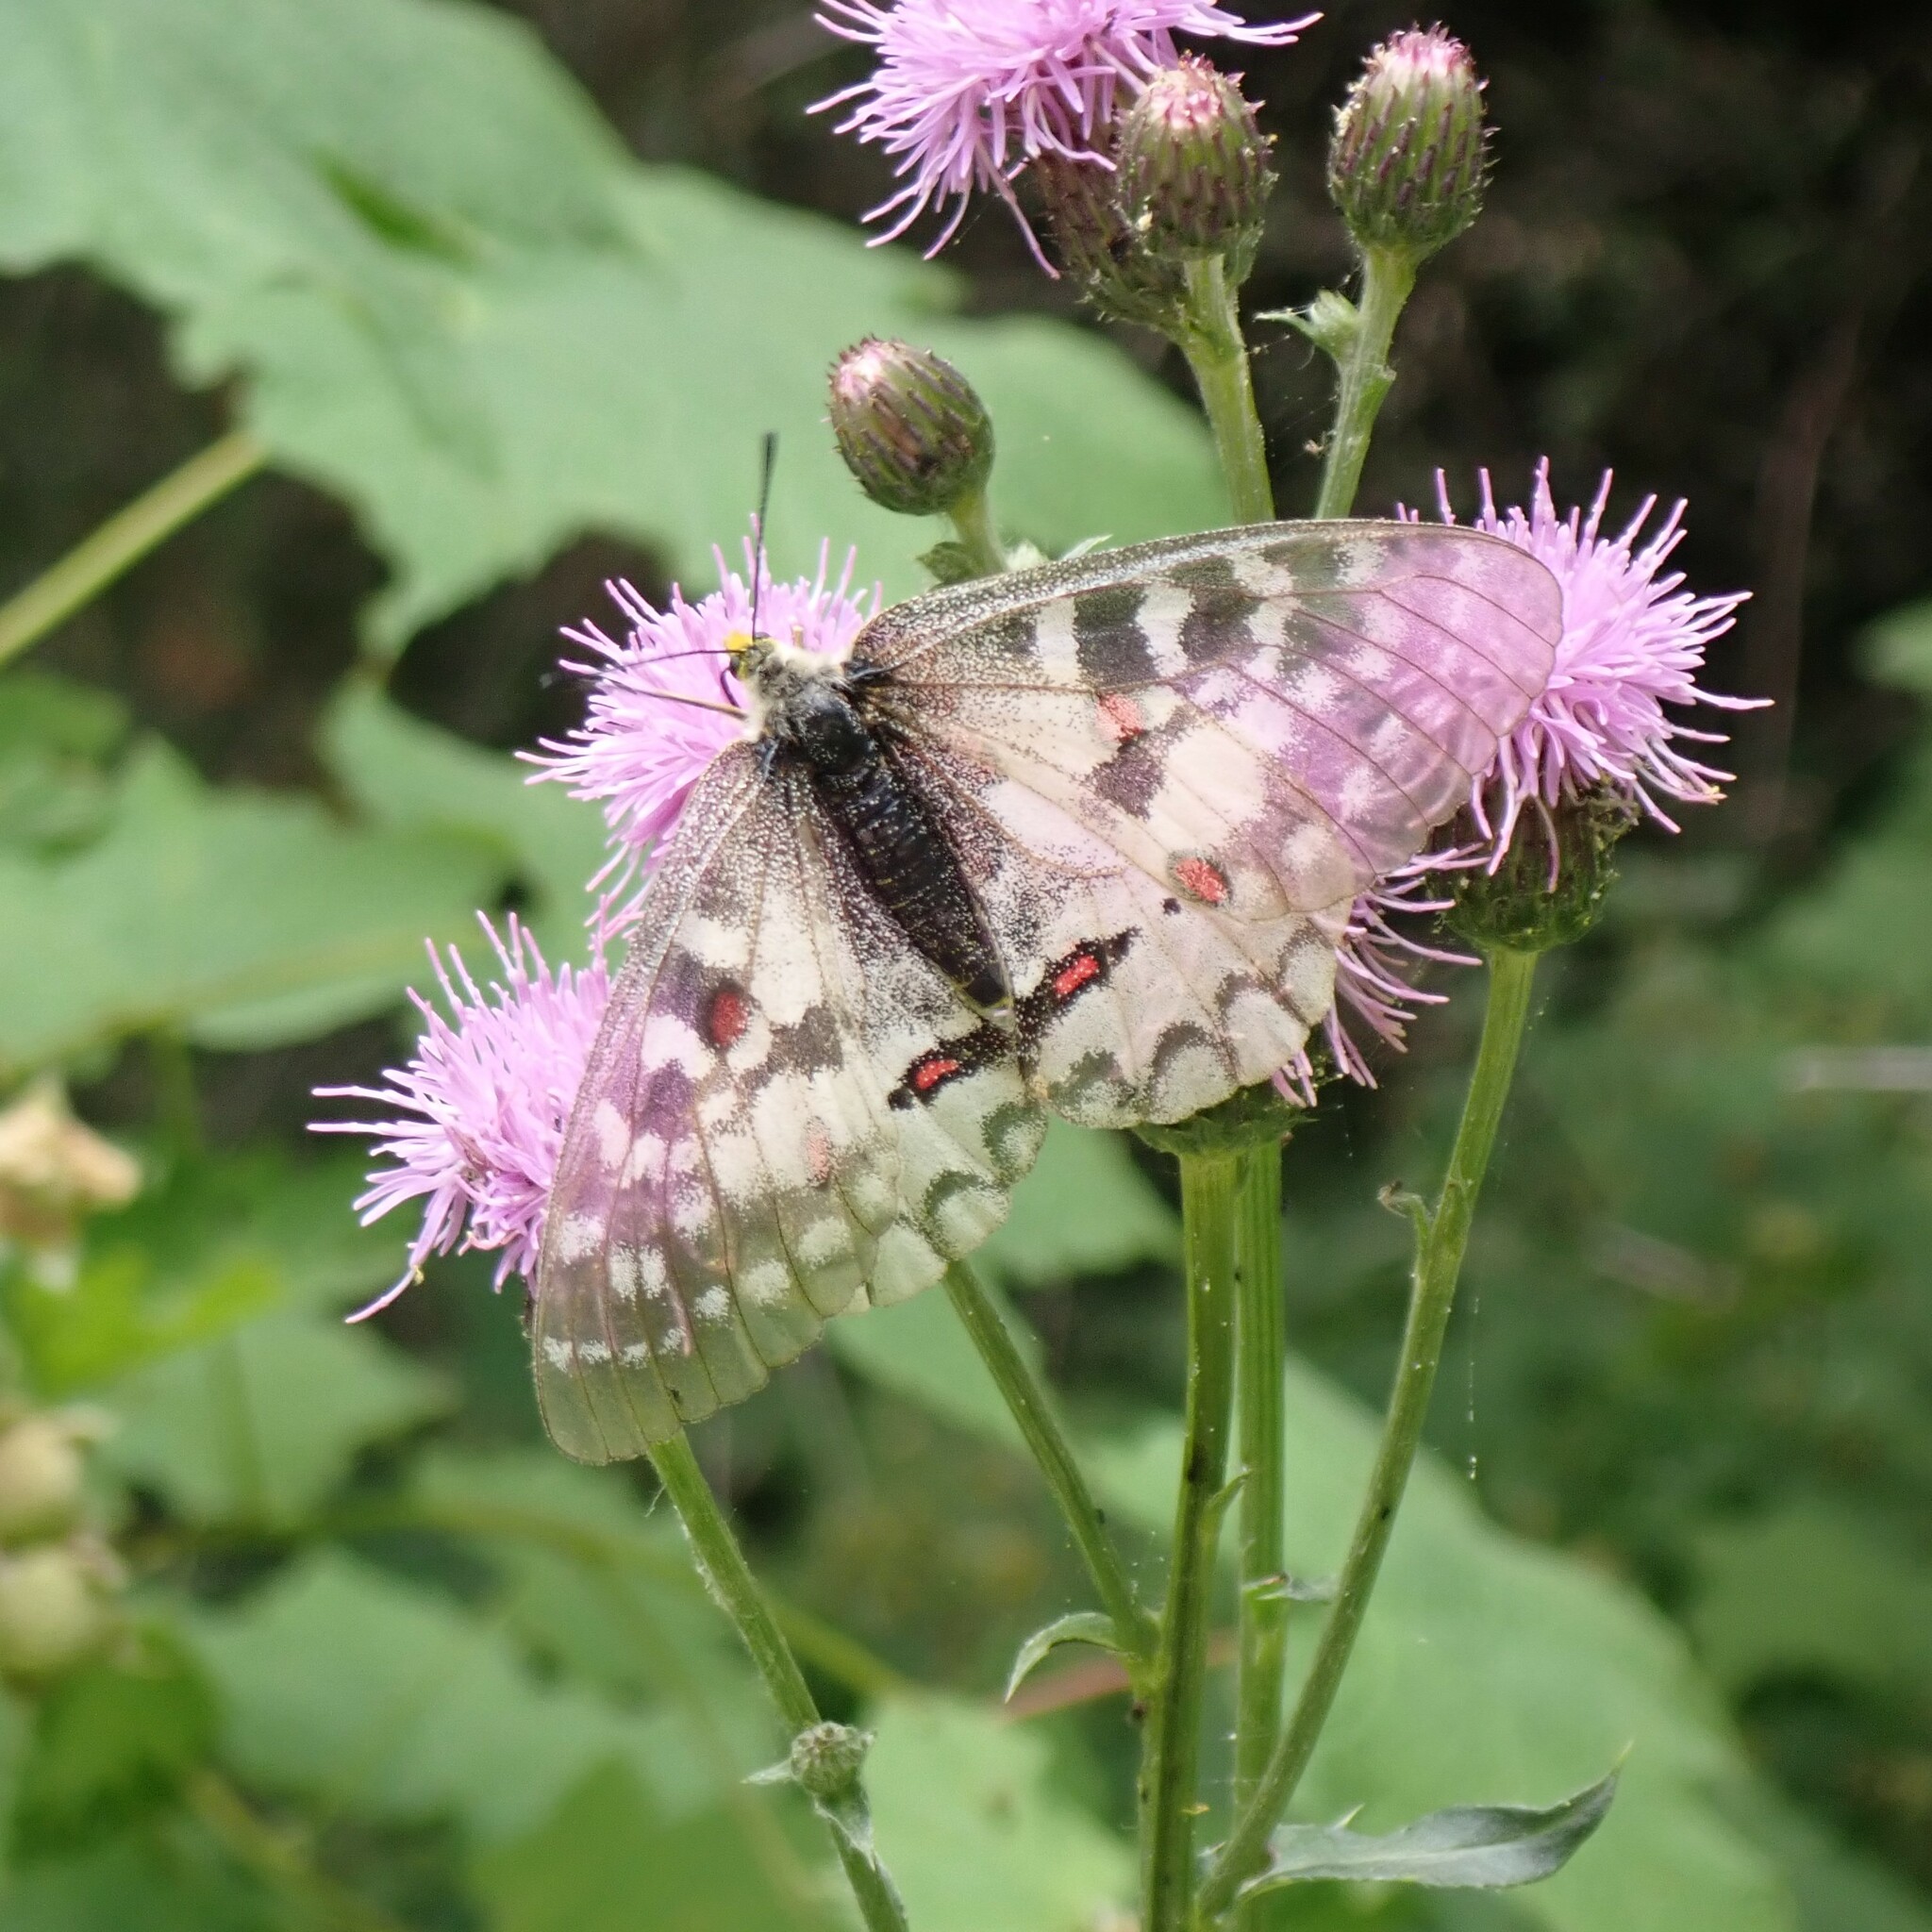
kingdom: Animalia
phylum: Arthropoda
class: Insecta
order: Lepidoptera
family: Papilionidae
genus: Parnassius
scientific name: Parnassius clodius
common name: American apollo
